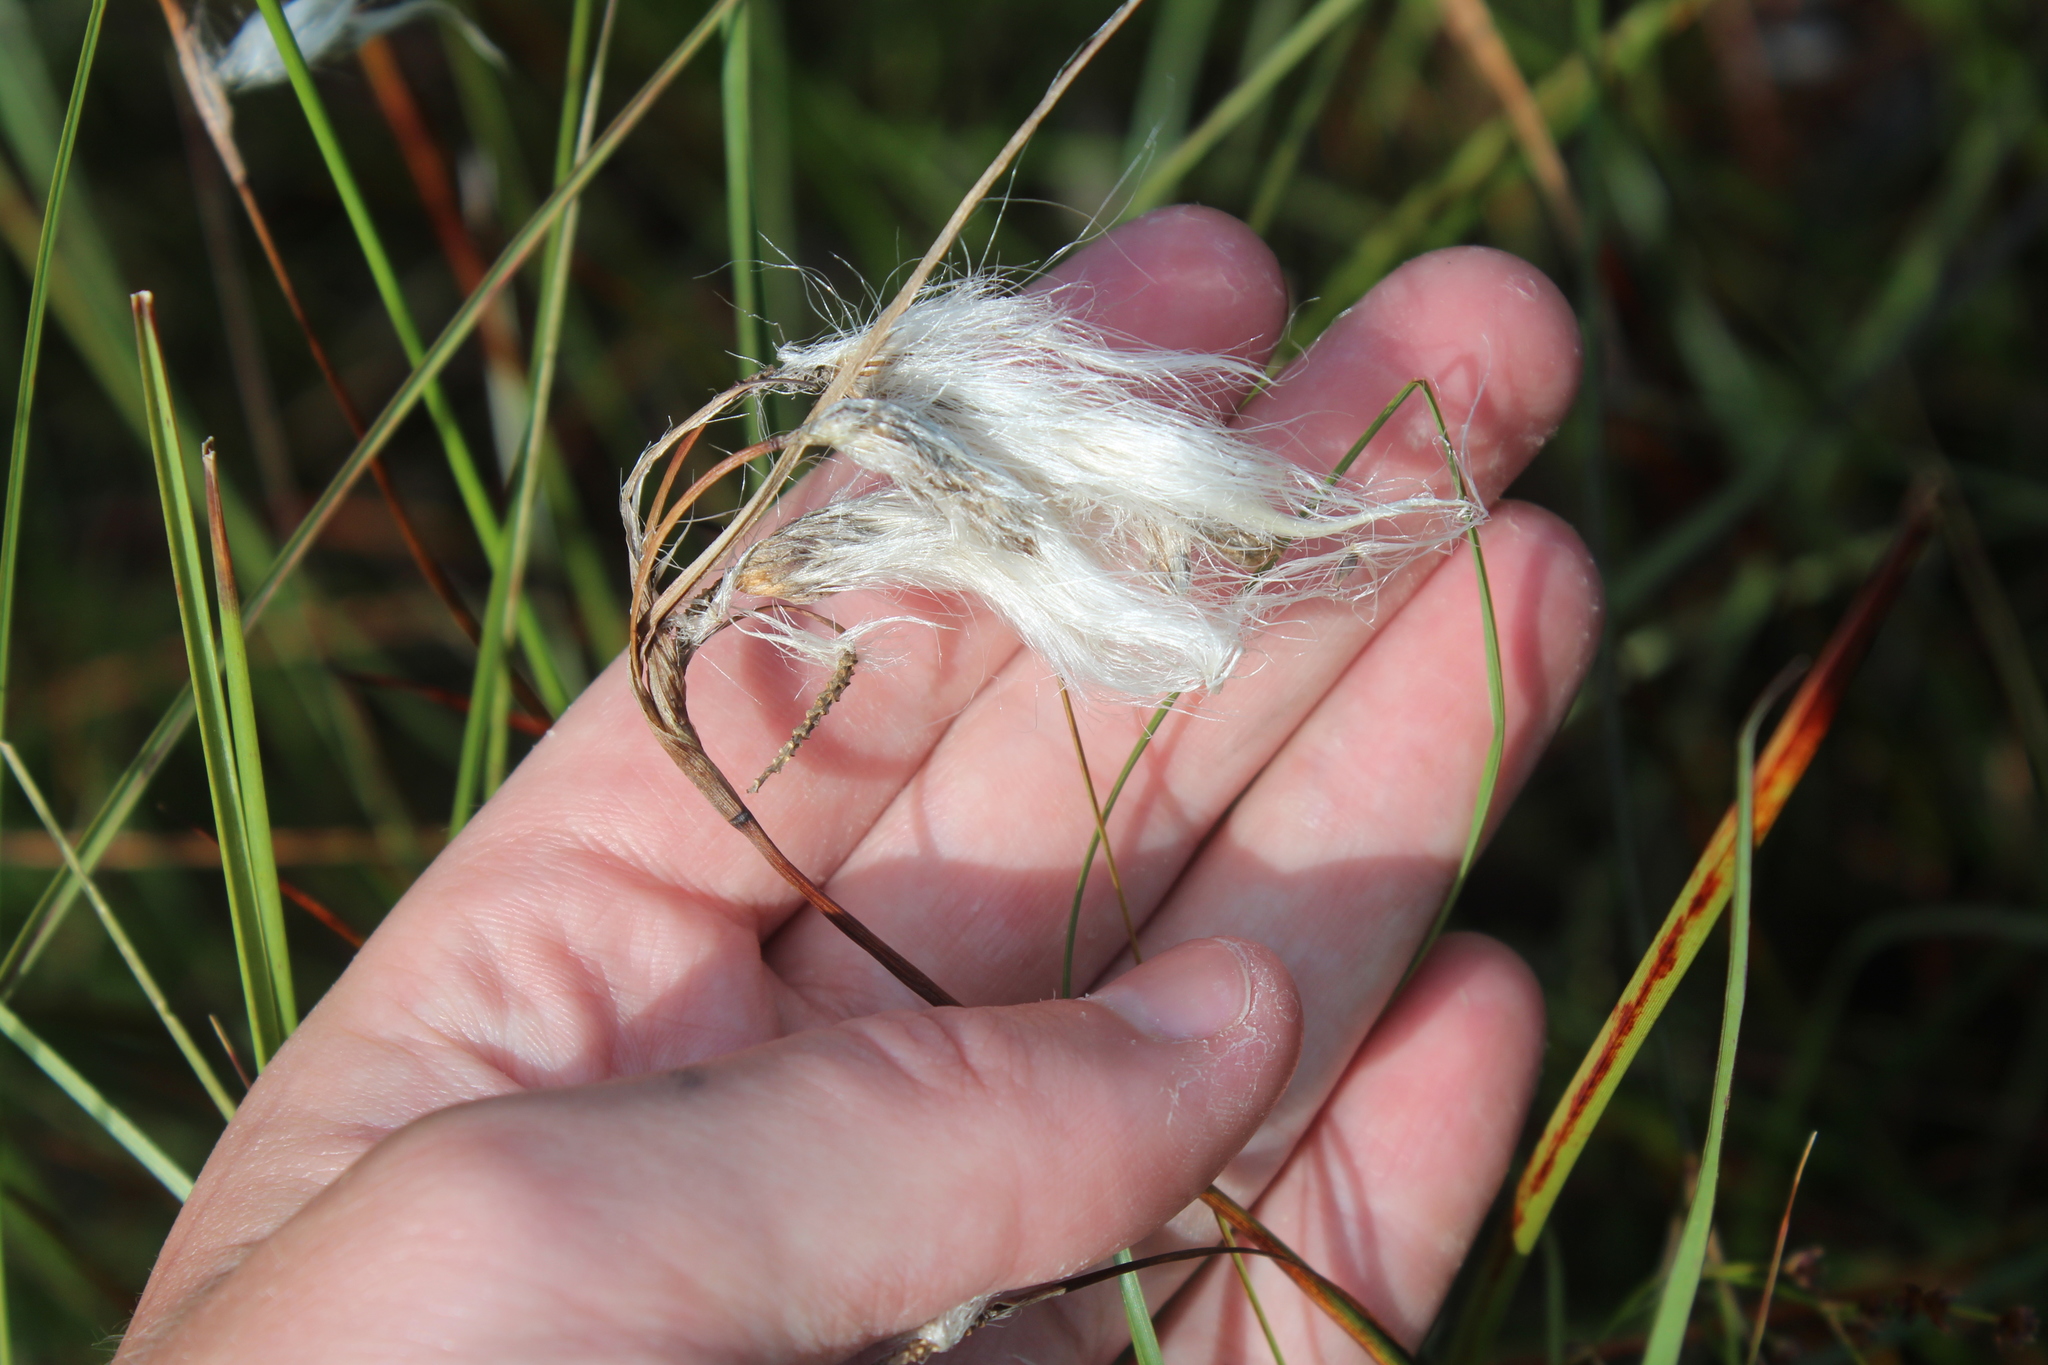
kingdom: Plantae
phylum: Tracheophyta
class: Liliopsida
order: Poales
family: Cyperaceae
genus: Eriophorum
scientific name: Eriophorum angustifolium
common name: Common cottongrass
